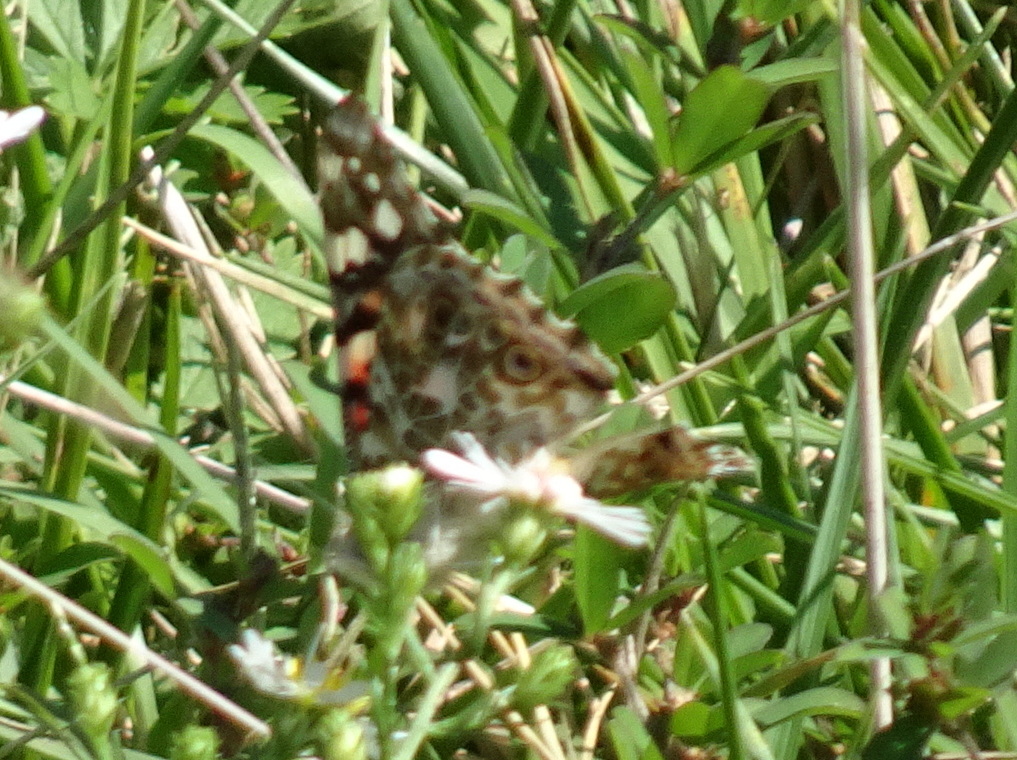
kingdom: Animalia
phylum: Arthropoda
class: Insecta
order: Lepidoptera
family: Nymphalidae
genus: Vanessa
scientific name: Vanessa cardui
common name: Painted lady
